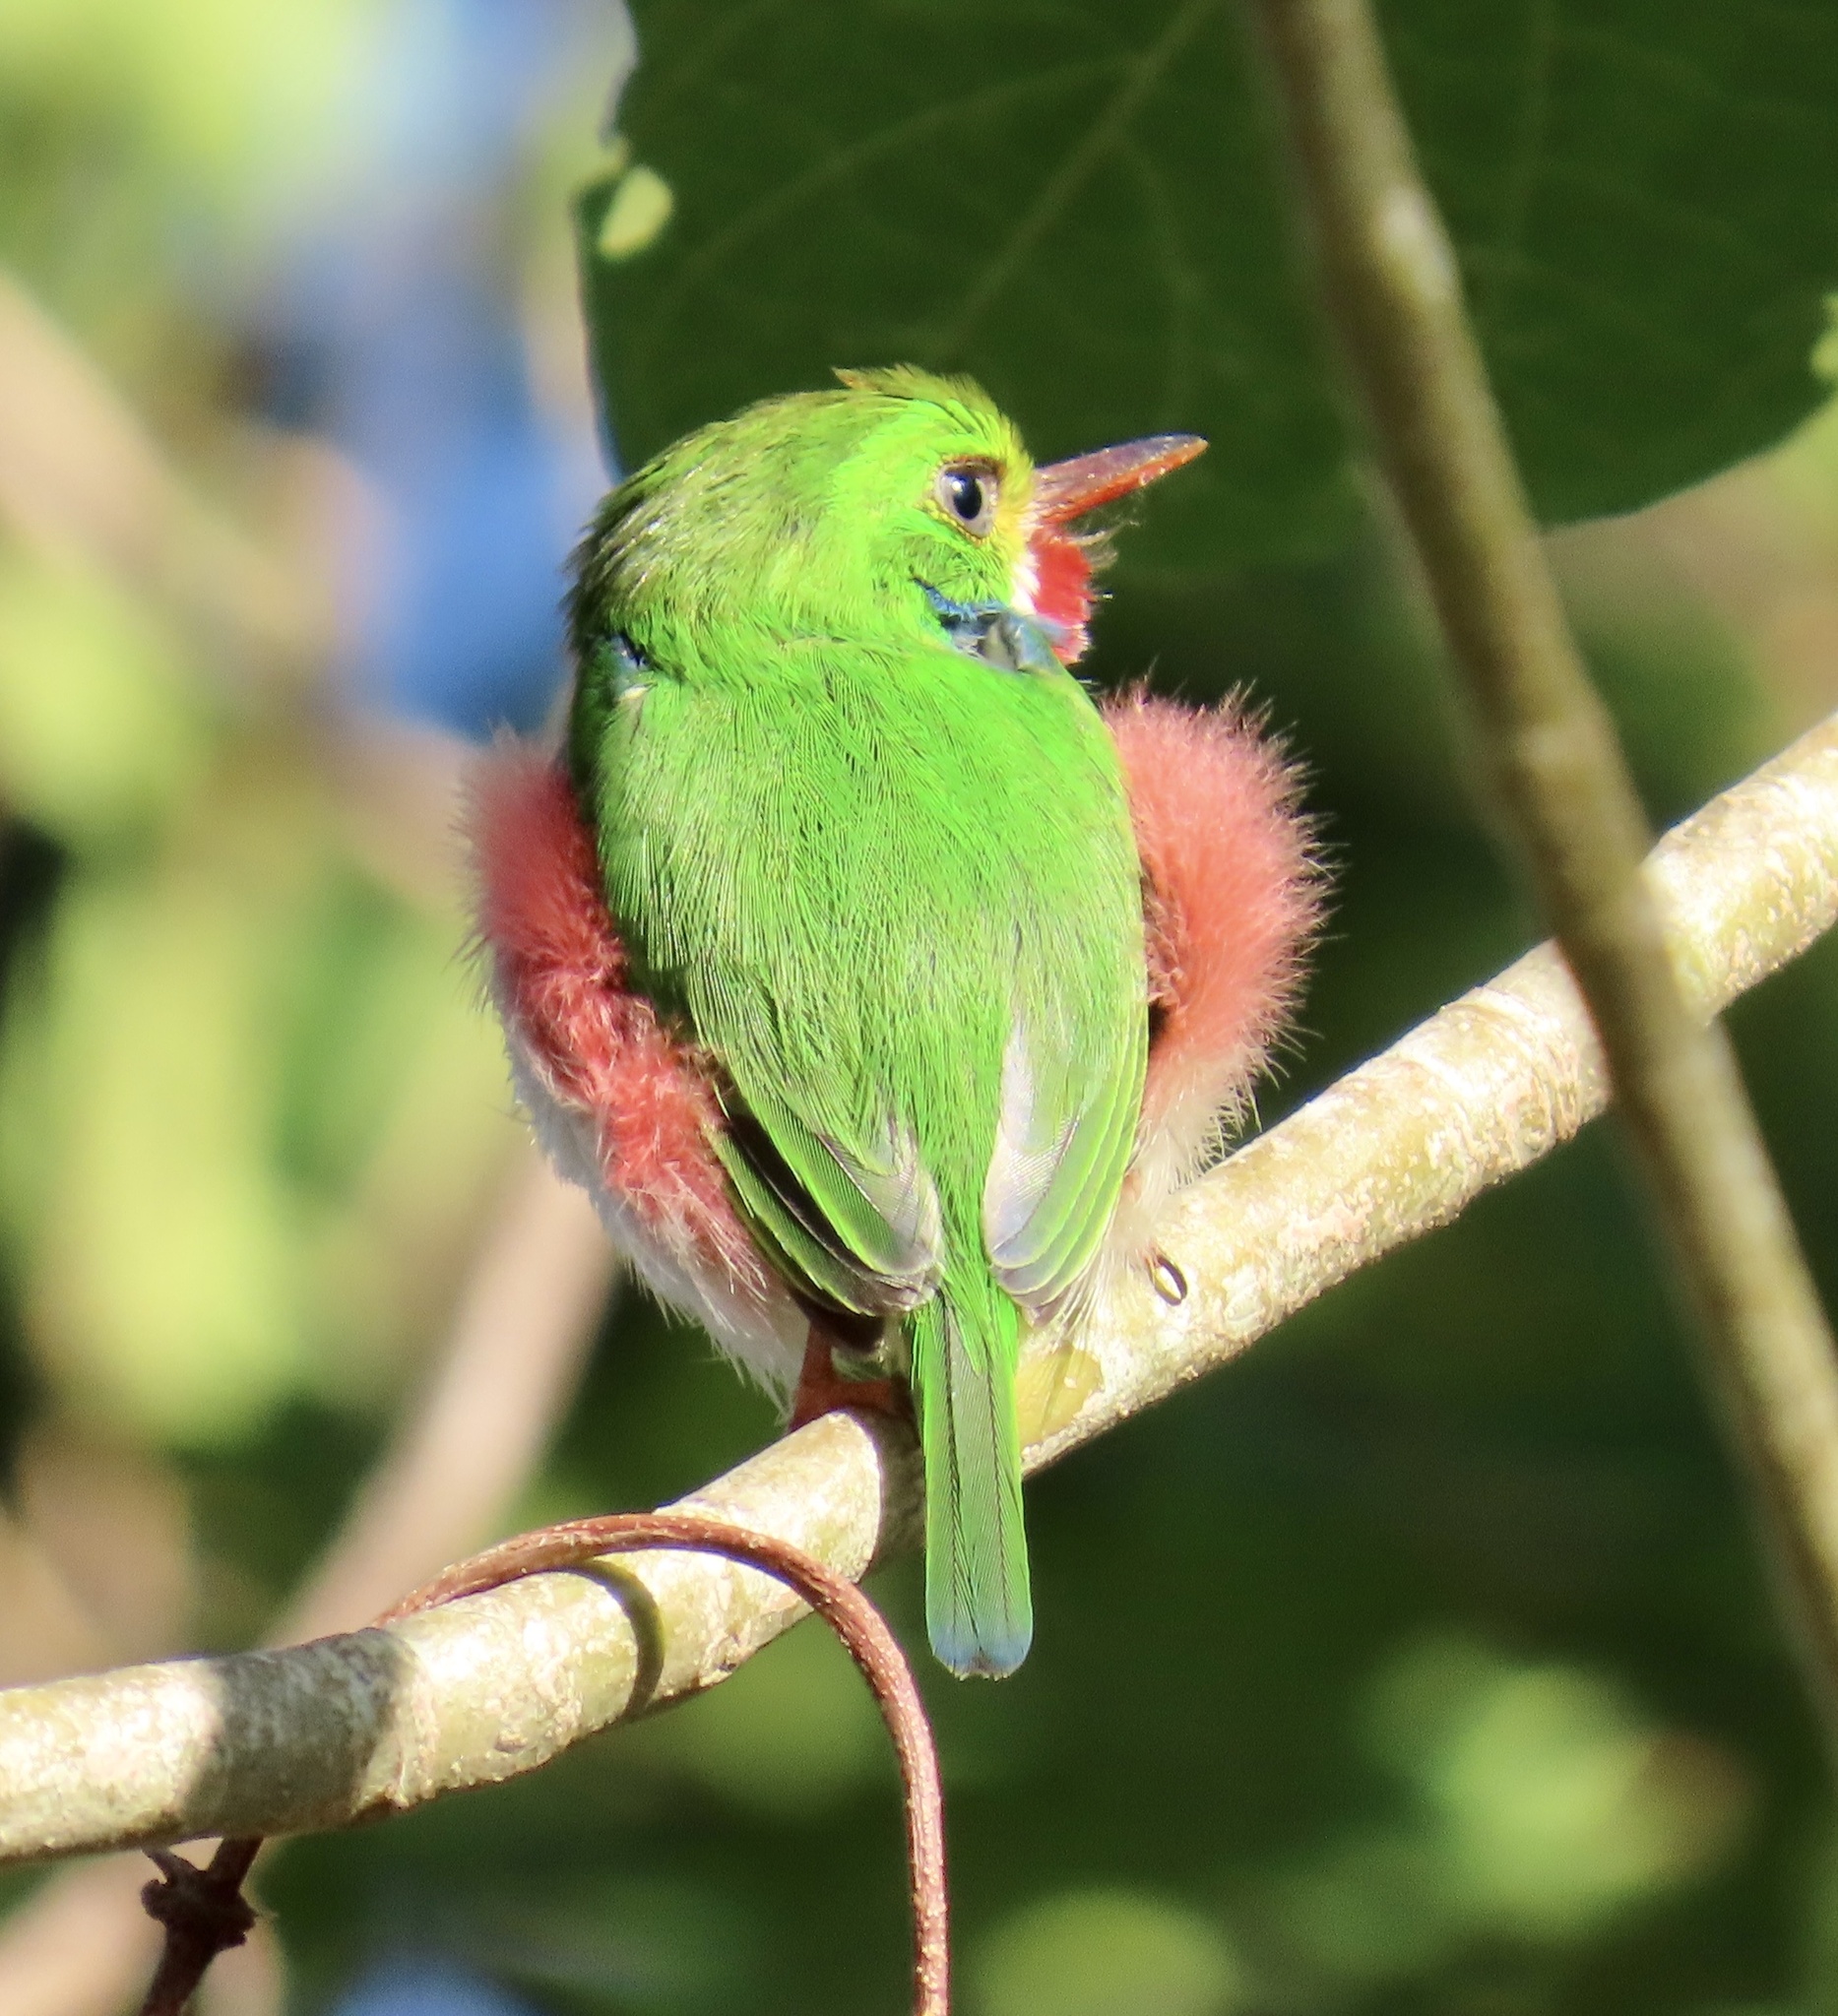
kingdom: Animalia
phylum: Chordata
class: Aves
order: Coraciiformes
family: Todidae
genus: Todus
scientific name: Todus multicolor
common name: Cuban tody
